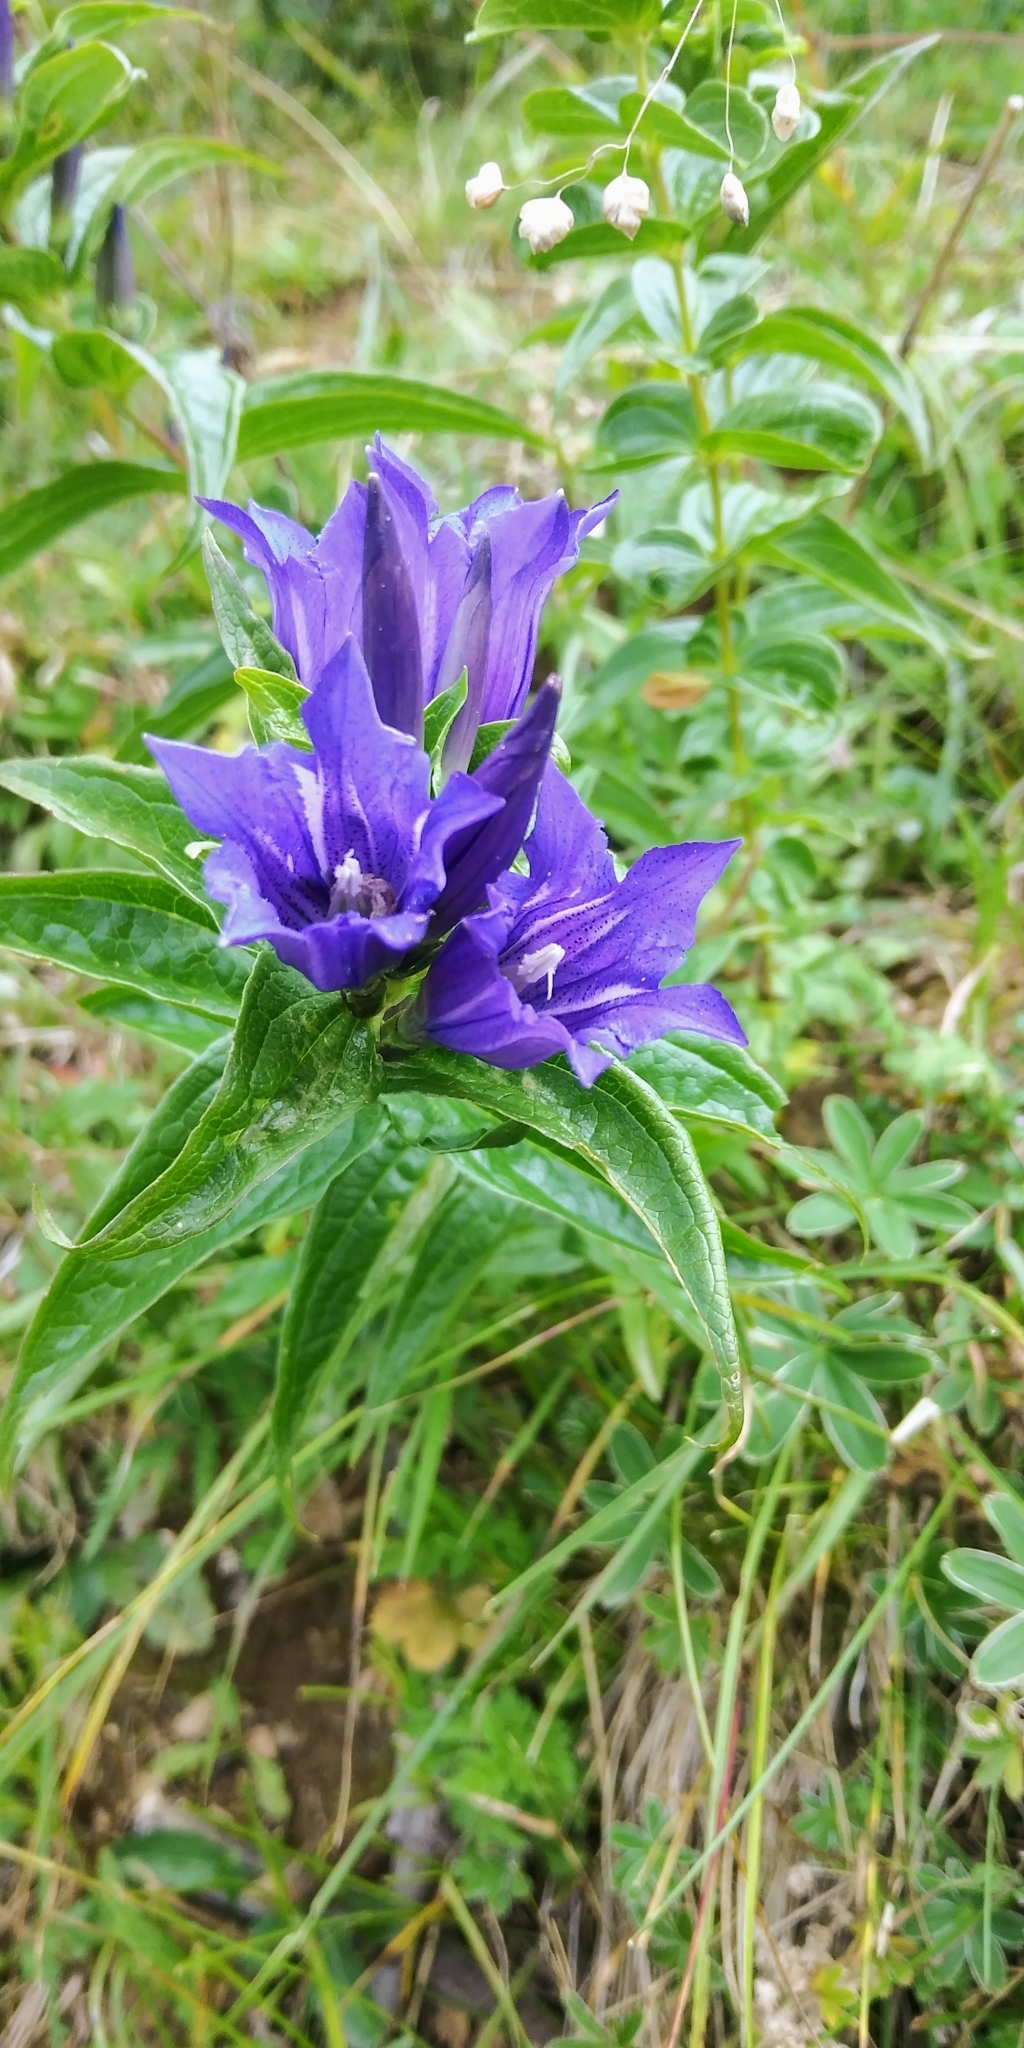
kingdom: Plantae
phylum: Tracheophyta
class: Magnoliopsida
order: Gentianales
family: Gentianaceae
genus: Gentiana
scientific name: Gentiana asclepiadea
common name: Willow gentian
